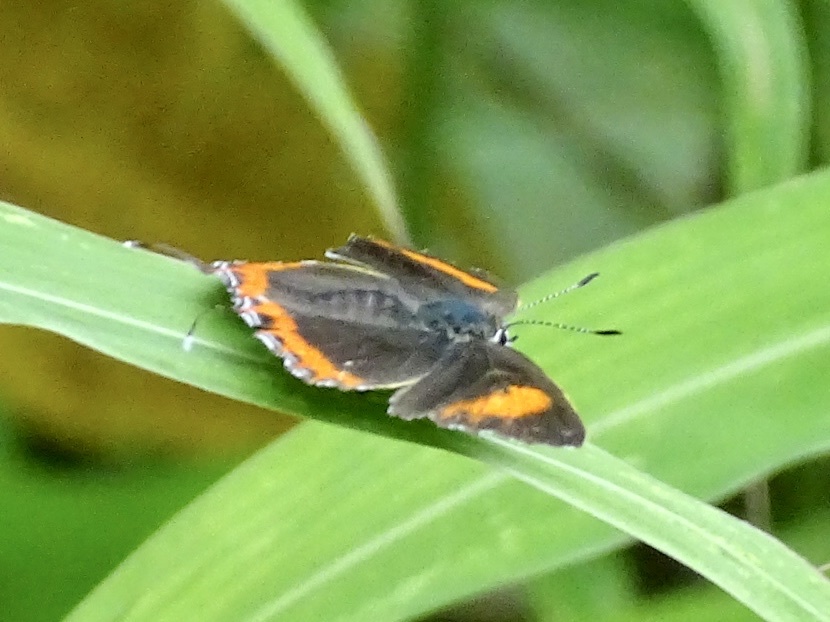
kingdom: Animalia
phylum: Arthropoda
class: Insecta
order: Lepidoptera
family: Lycaenidae
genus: Heliophorus
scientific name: Heliophorus epicles
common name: Purple sapphire
